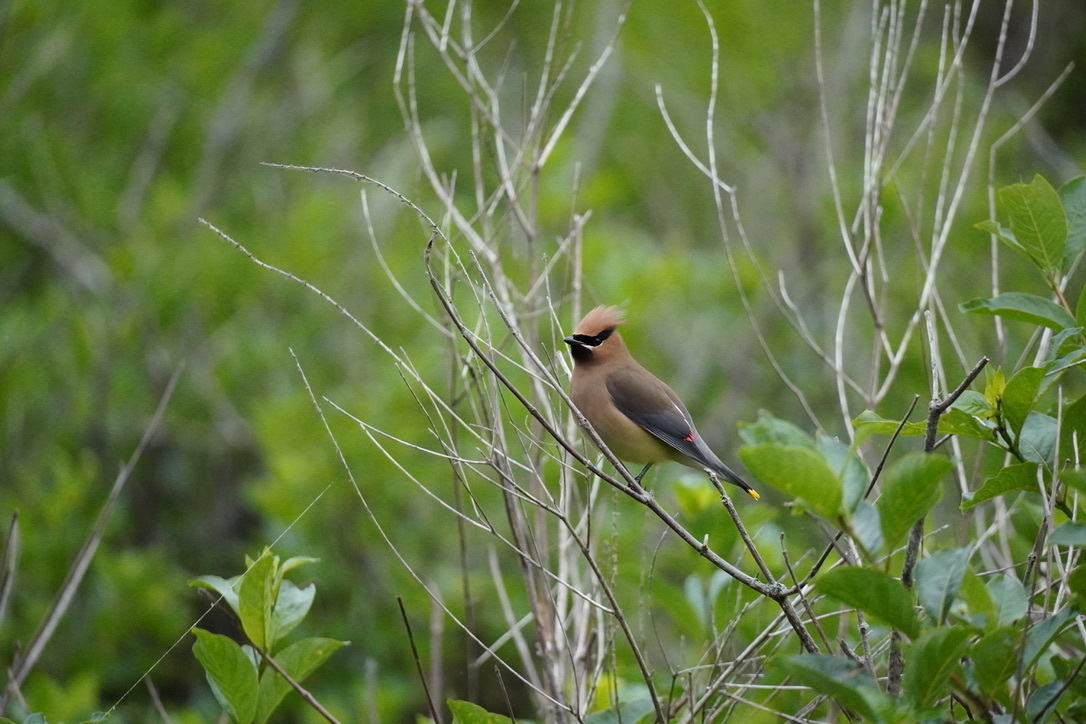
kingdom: Animalia
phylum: Chordata
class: Aves
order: Passeriformes
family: Bombycillidae
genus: Bombycilla
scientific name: Bombycilla cedrorum
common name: Cedar waxwing
